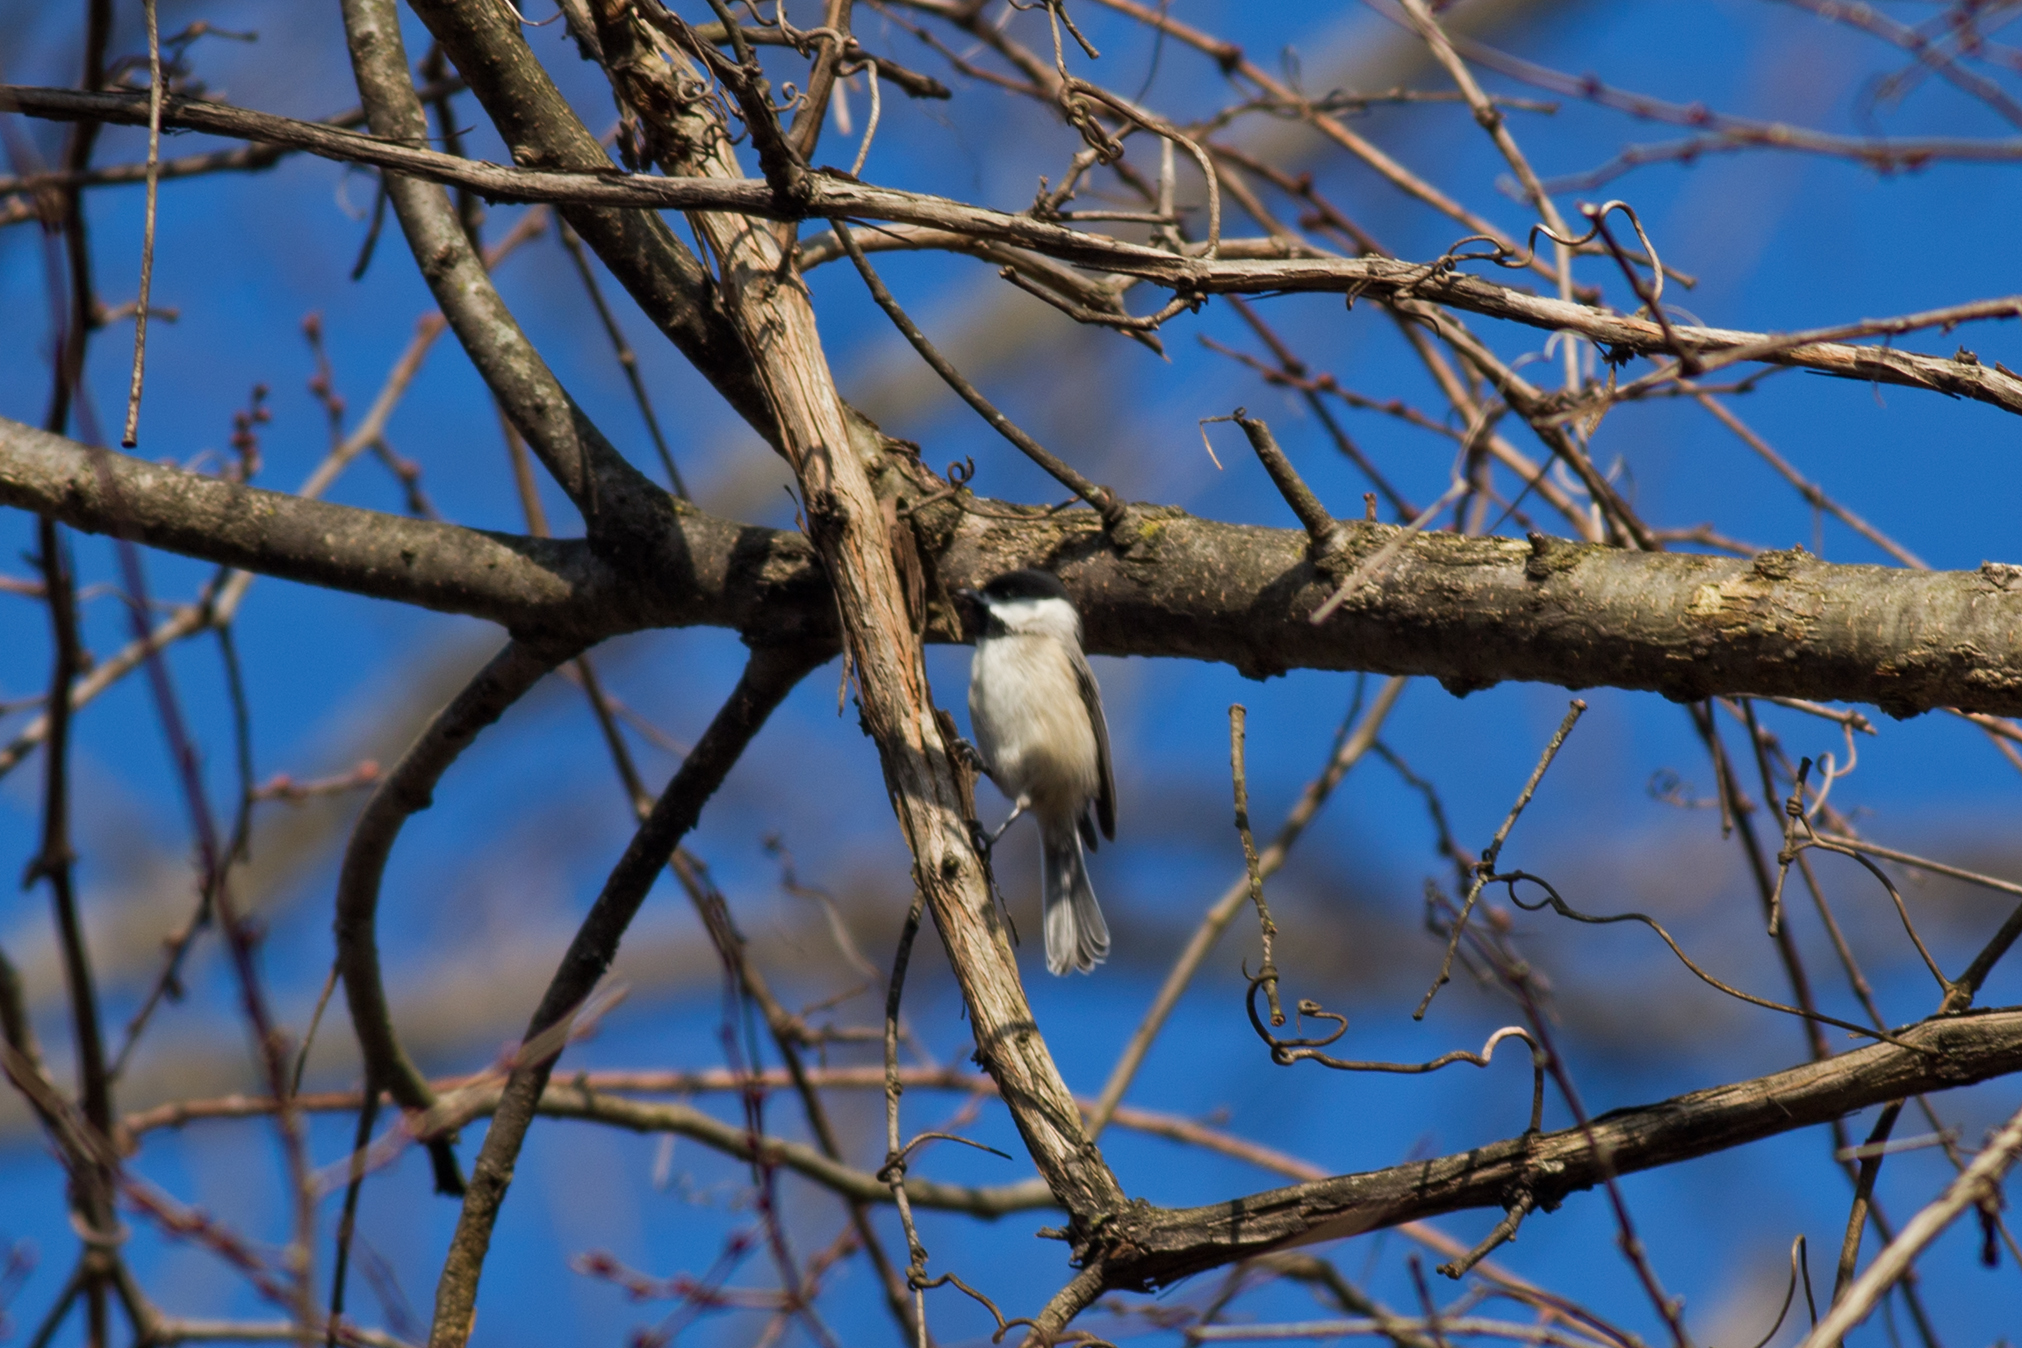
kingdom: Animalia
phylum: Chordata
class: Aves
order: Passeriformes
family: Paridae
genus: Poecile
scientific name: Poecile carolinensis
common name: Carolina chickadee
